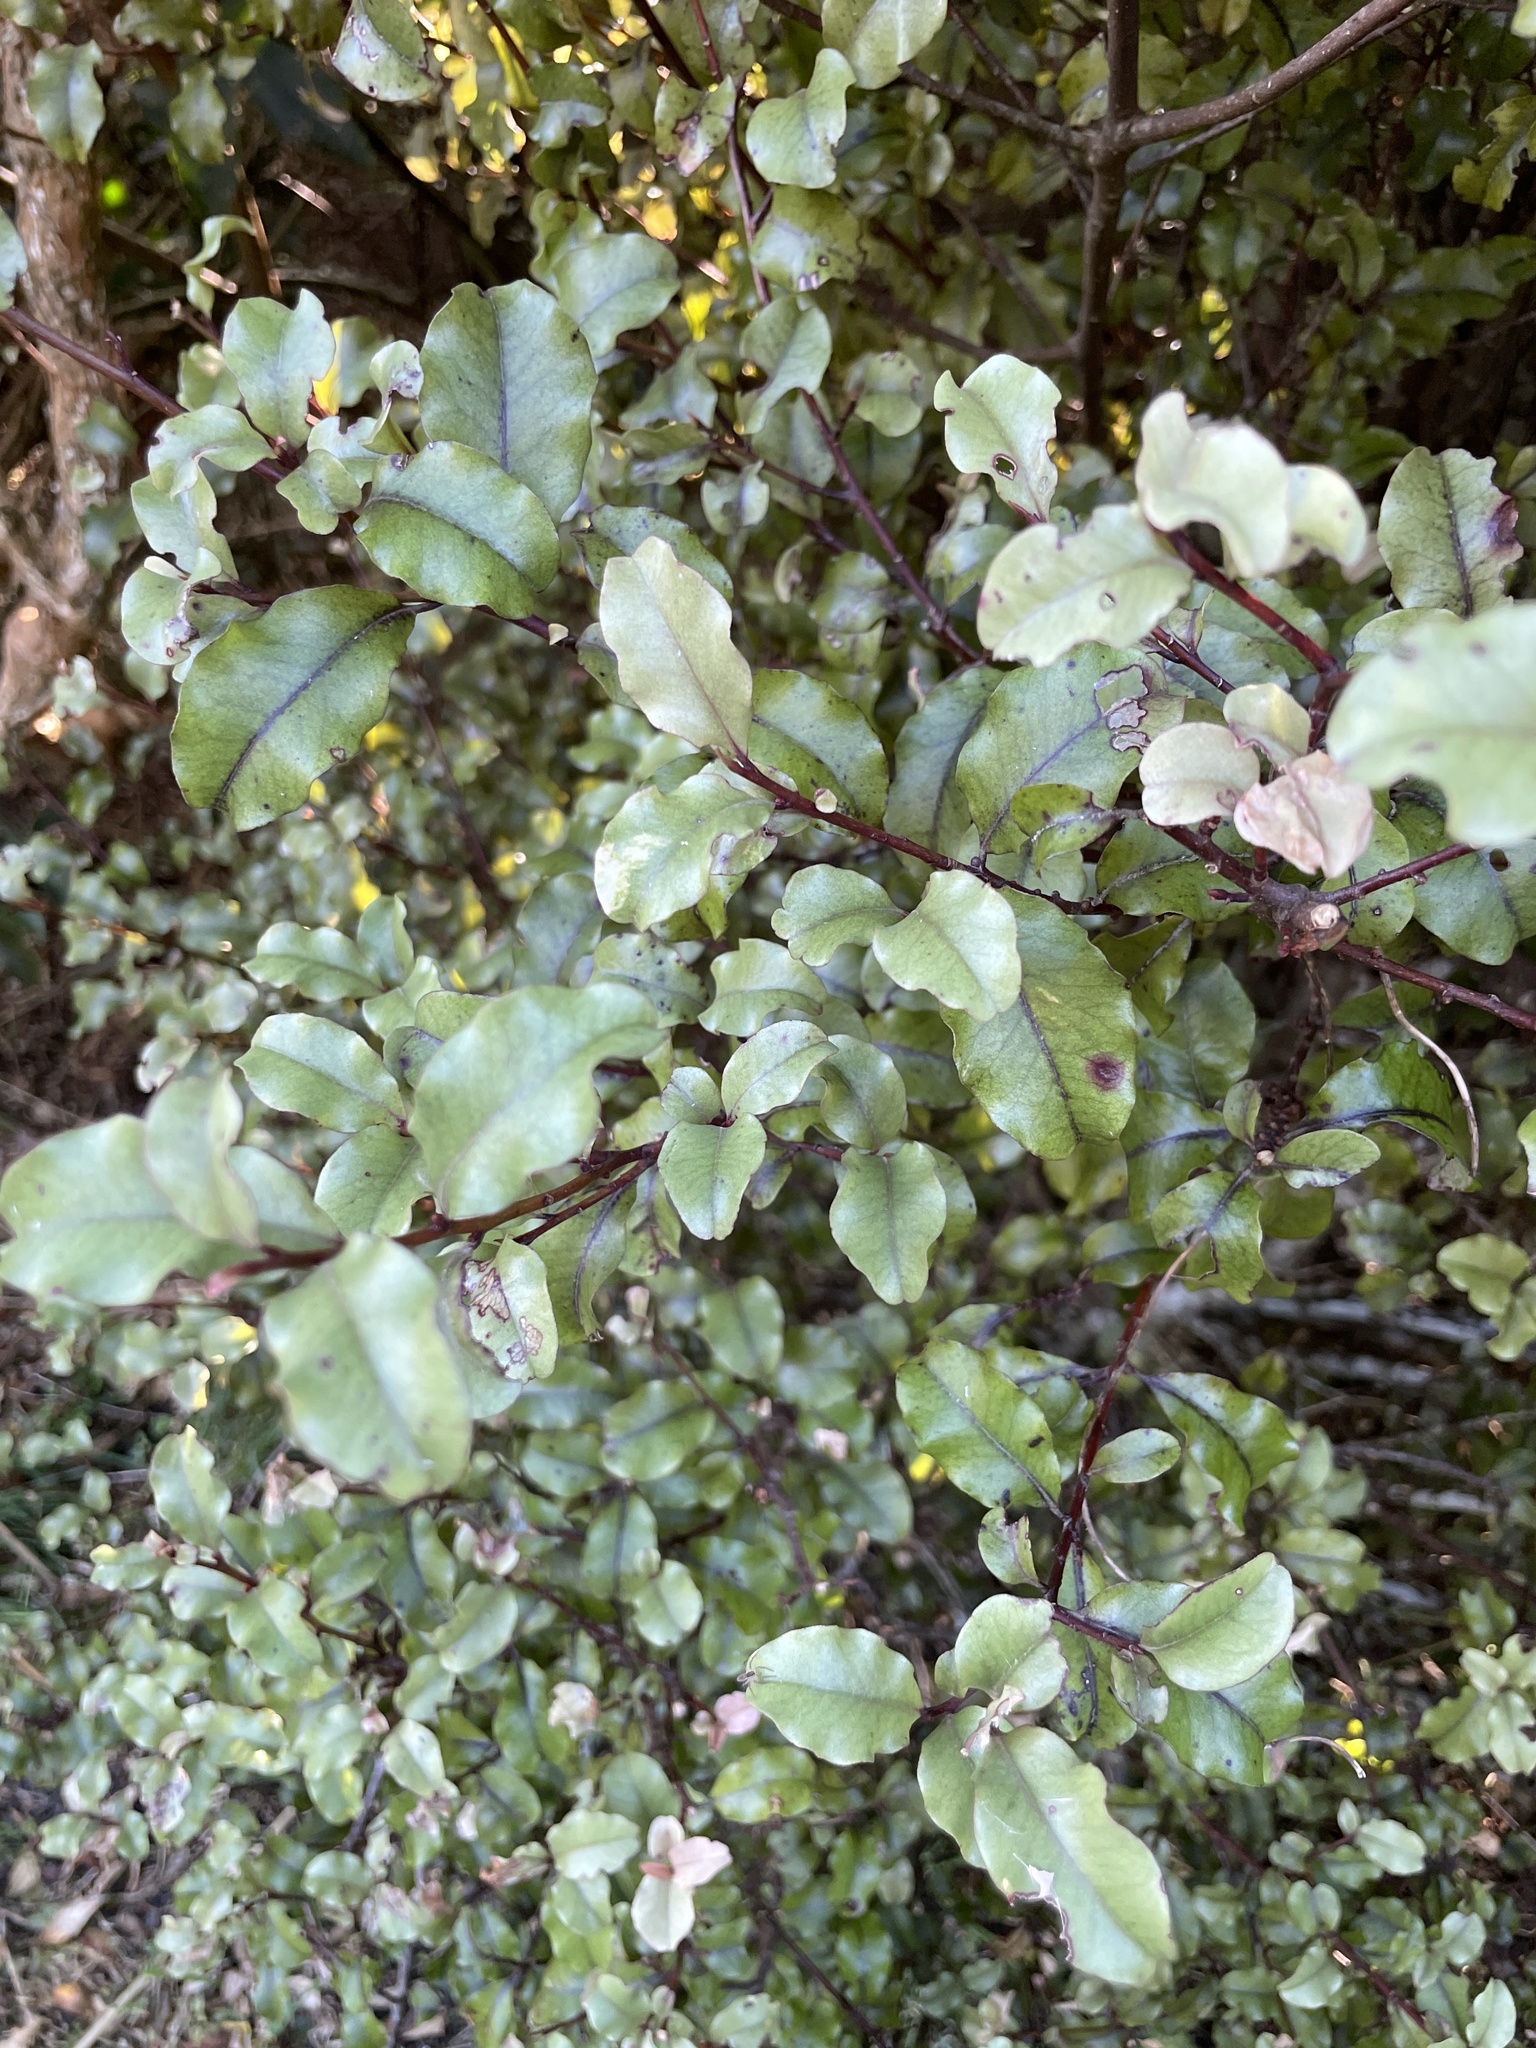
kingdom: Plantae
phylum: Tracheophyta
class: Magnoliopsida
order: Ericales
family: Primulaceae
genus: Myrsine
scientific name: Myrsine australis
